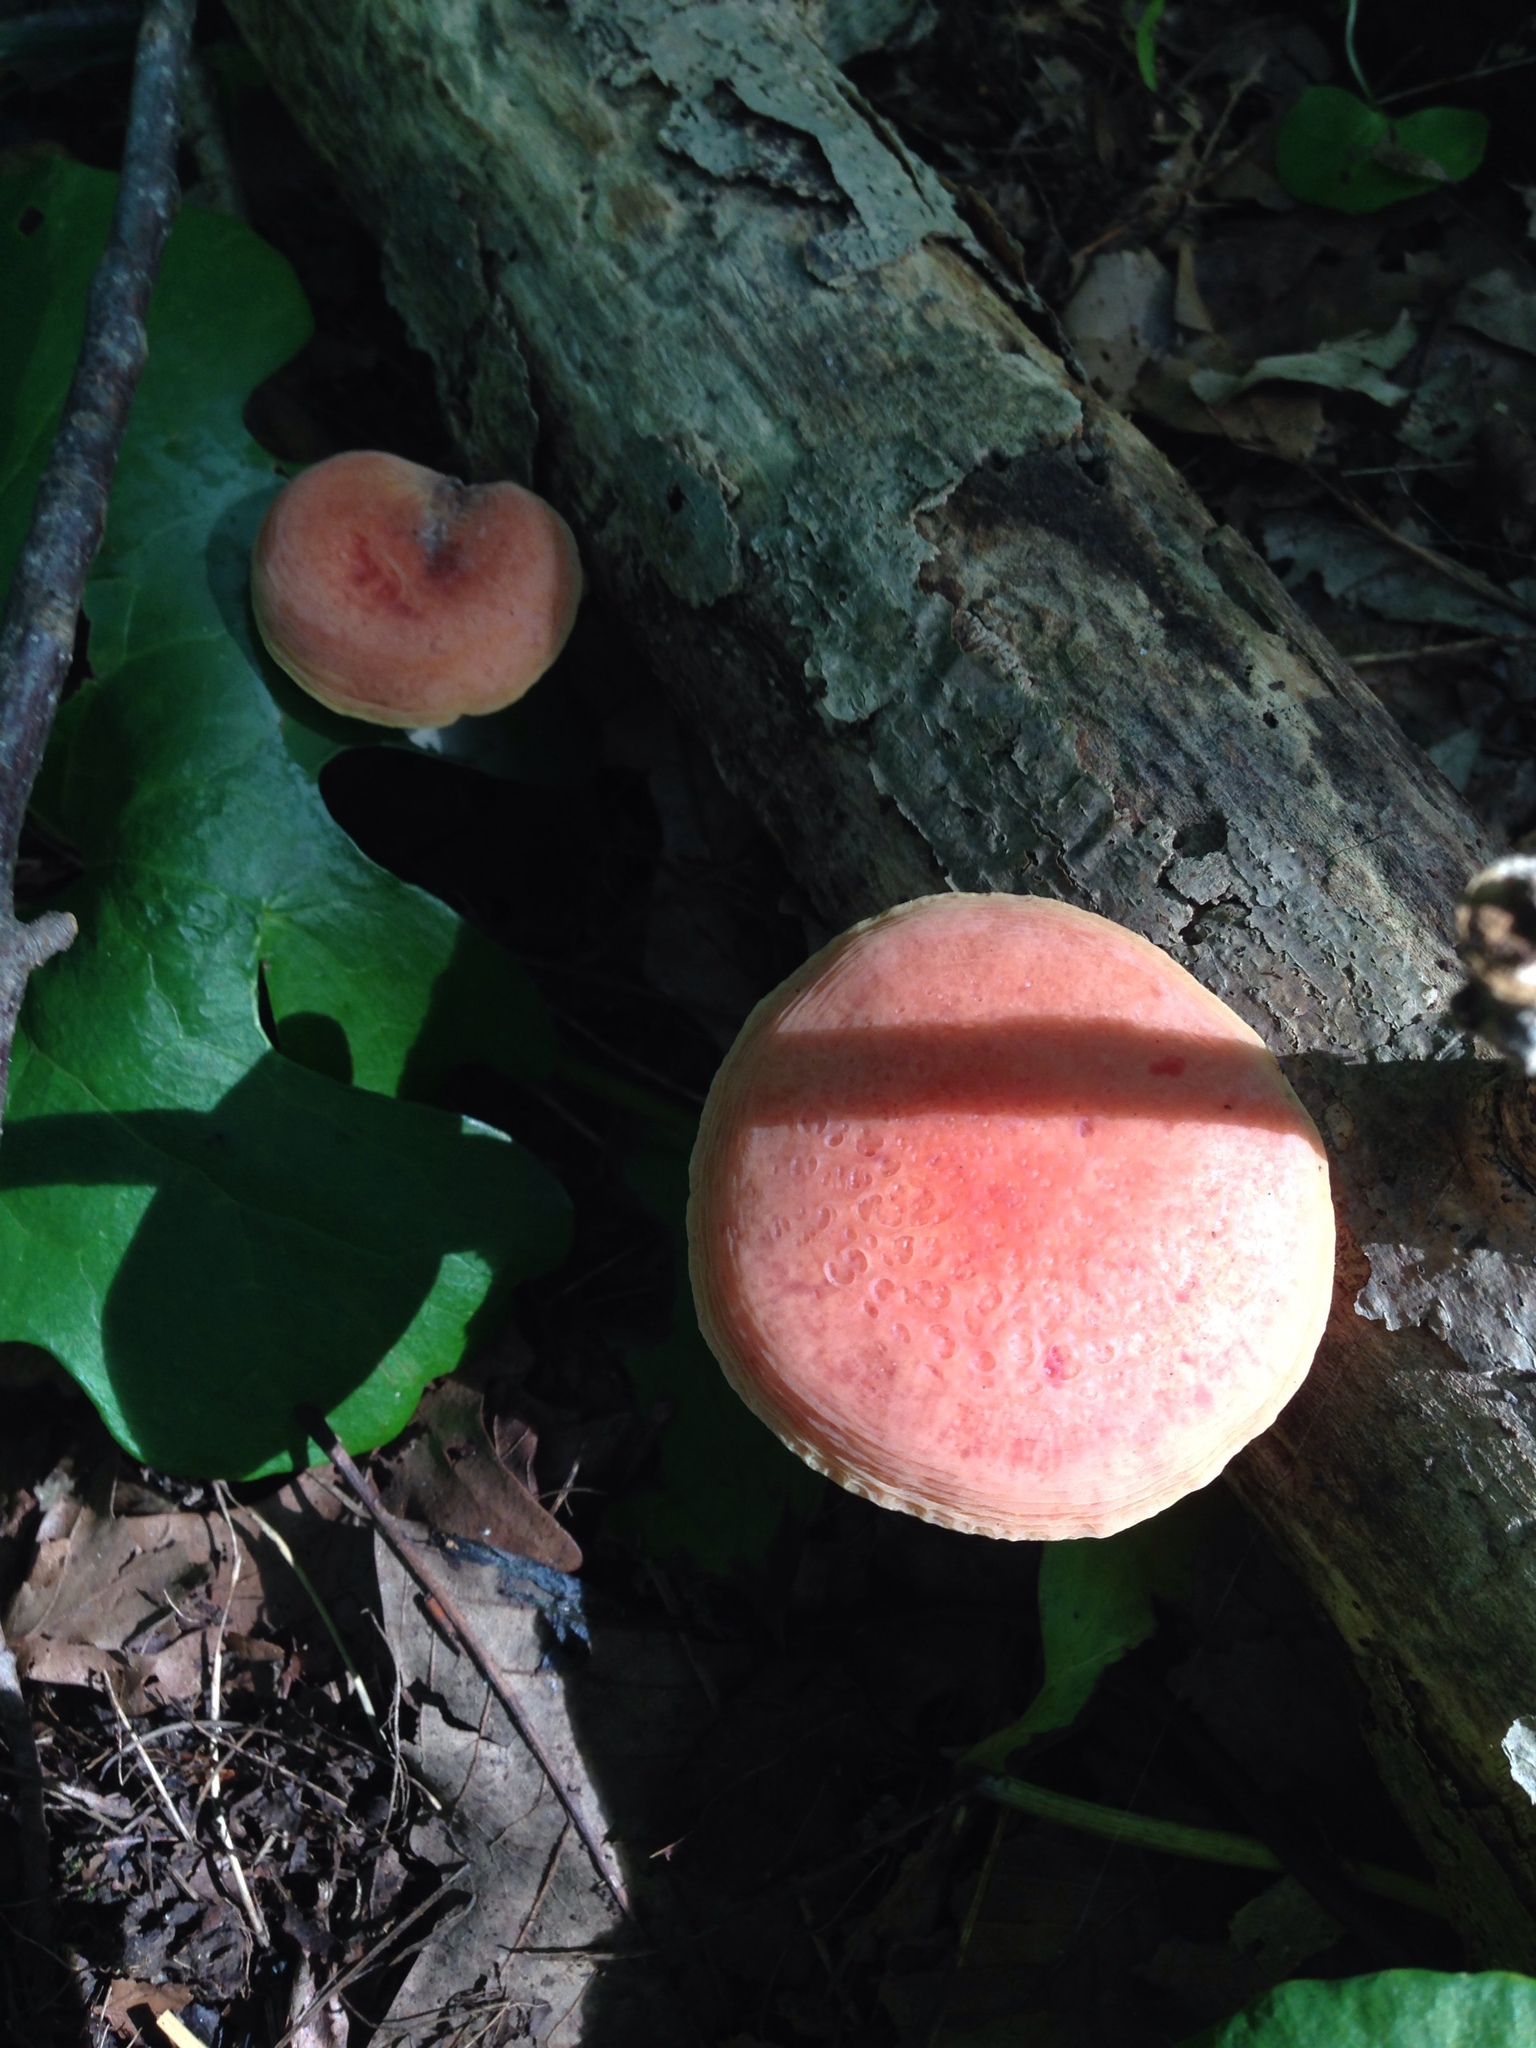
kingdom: Fungi
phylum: Basidiomycota
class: Agaricomycetes
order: Agaricales
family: Physalacriaceae
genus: Rhodotus
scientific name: Rhodotus palmatus
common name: Wrinkled peach
